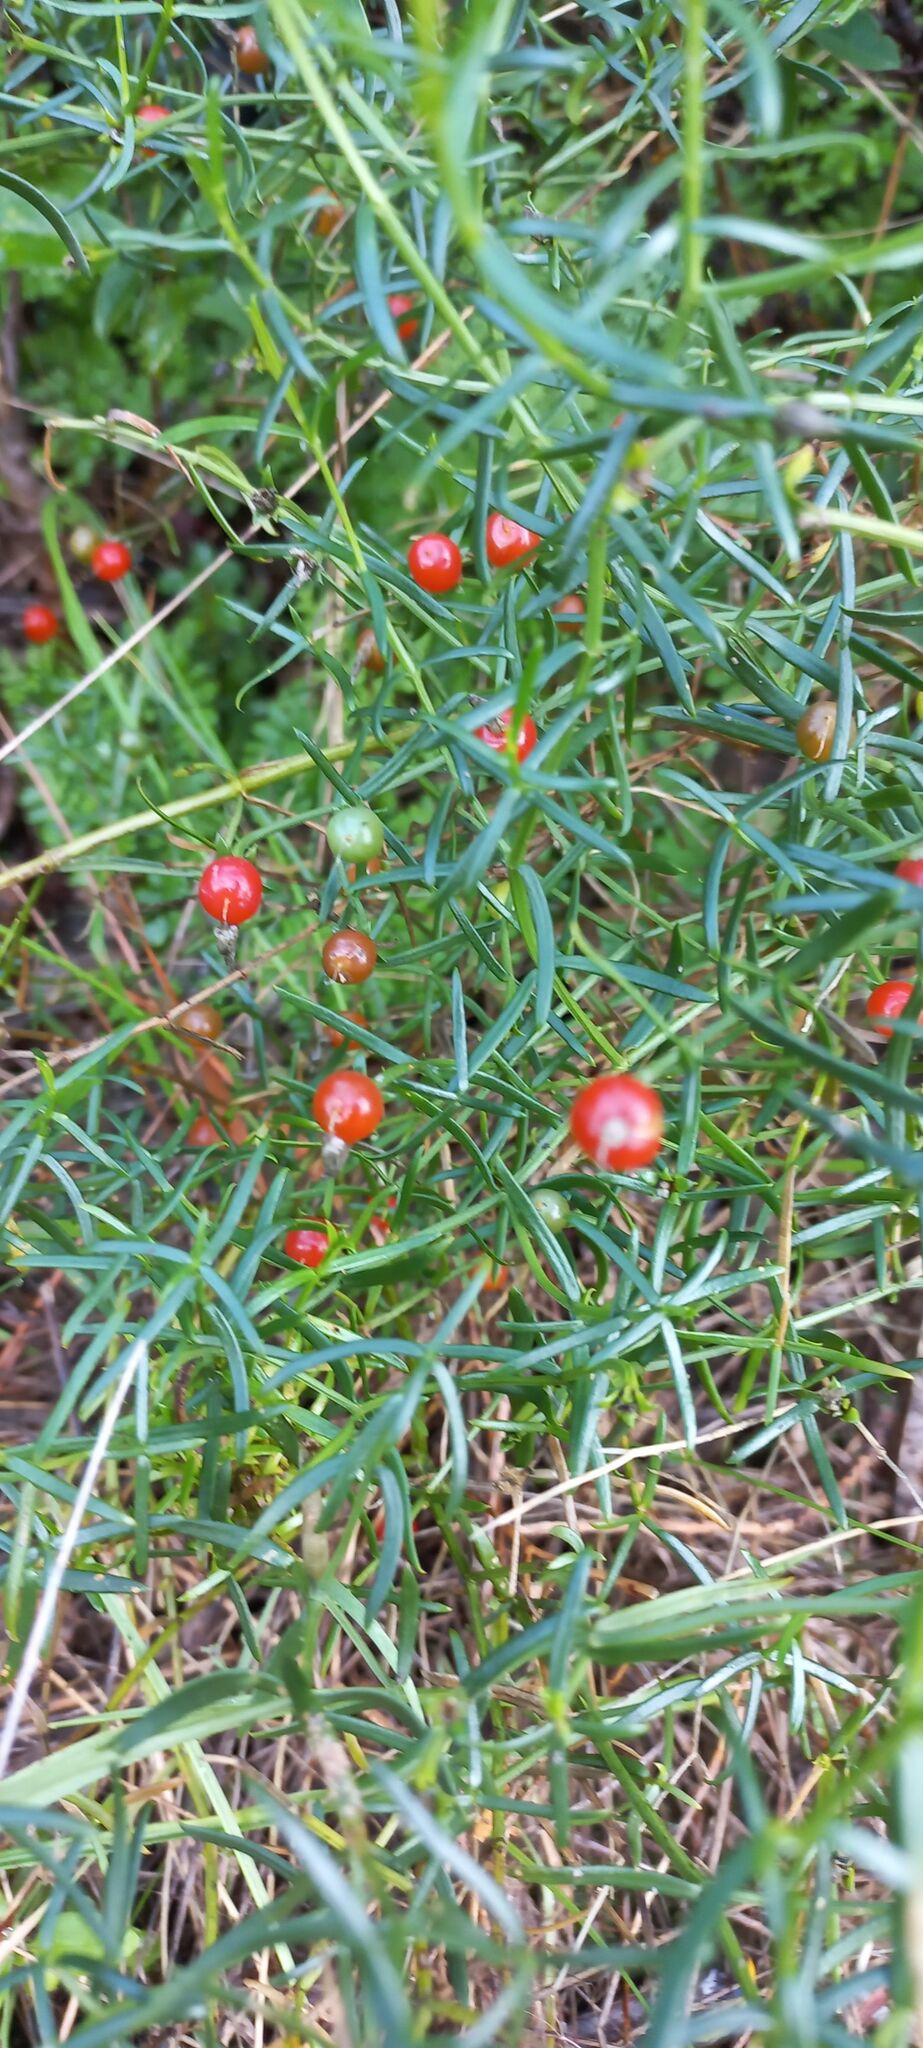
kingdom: Plantae
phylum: Tracheophyta
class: Magnoliopsida
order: Gentianales
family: Gentianaceae
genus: Chironia
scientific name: Chironia baccifera
